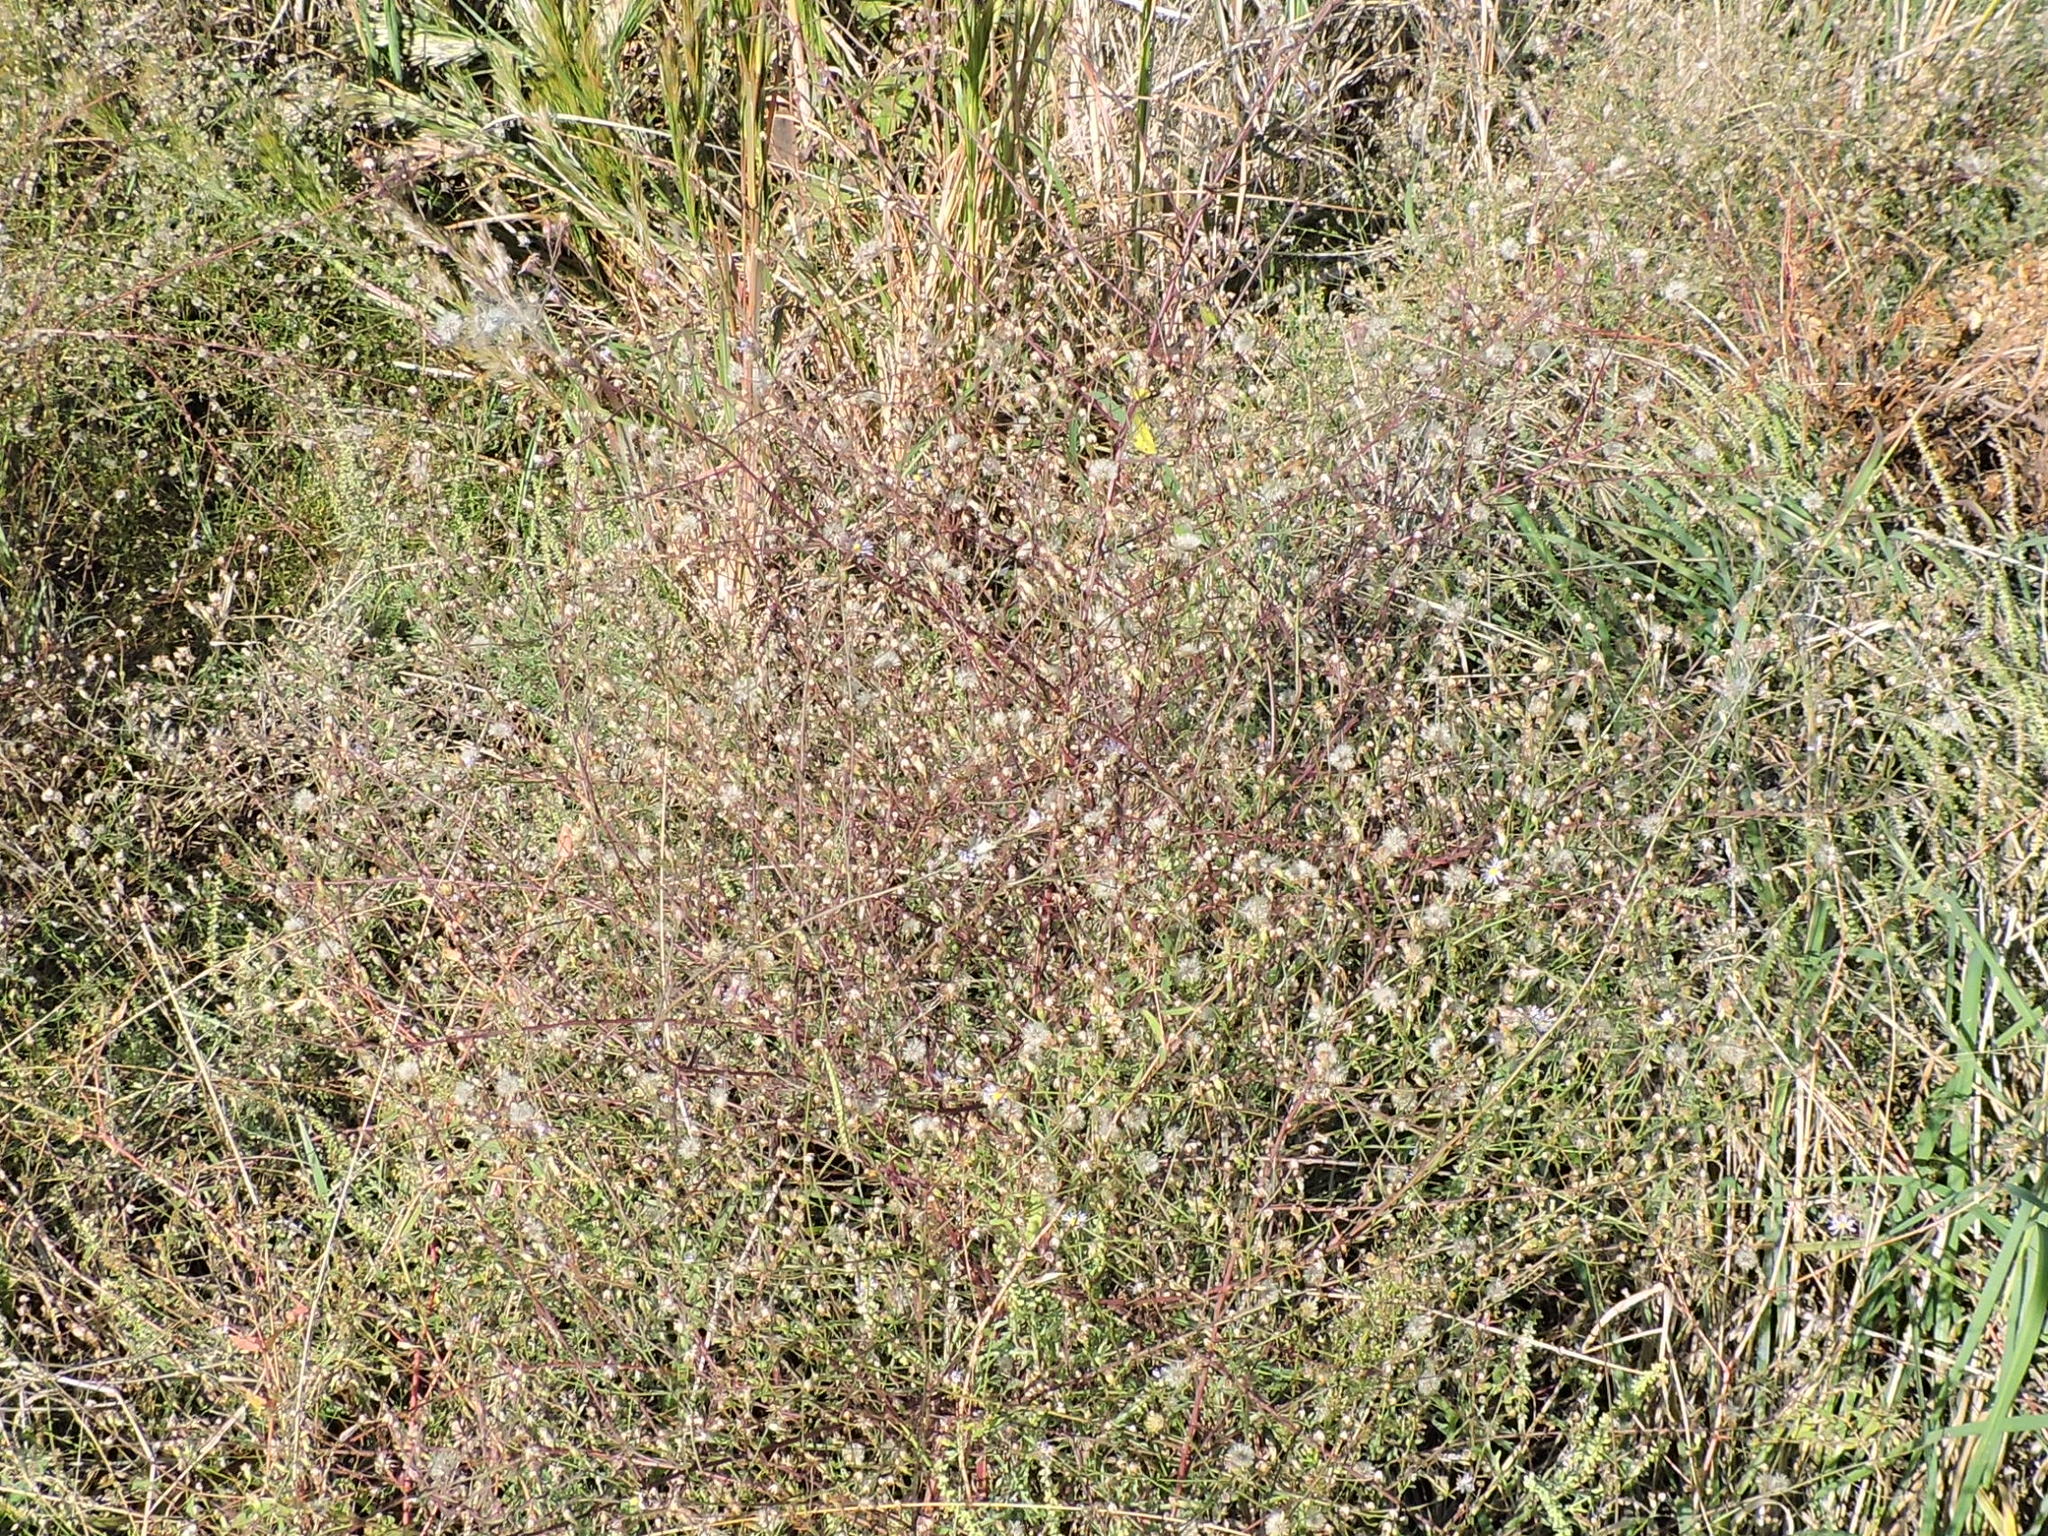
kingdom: Plantae
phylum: Tracheophyta
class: Magnoliopsida
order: Asterales
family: Asteraceae
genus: Symphyotrichum
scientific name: Symphyotrichum divaricatum
